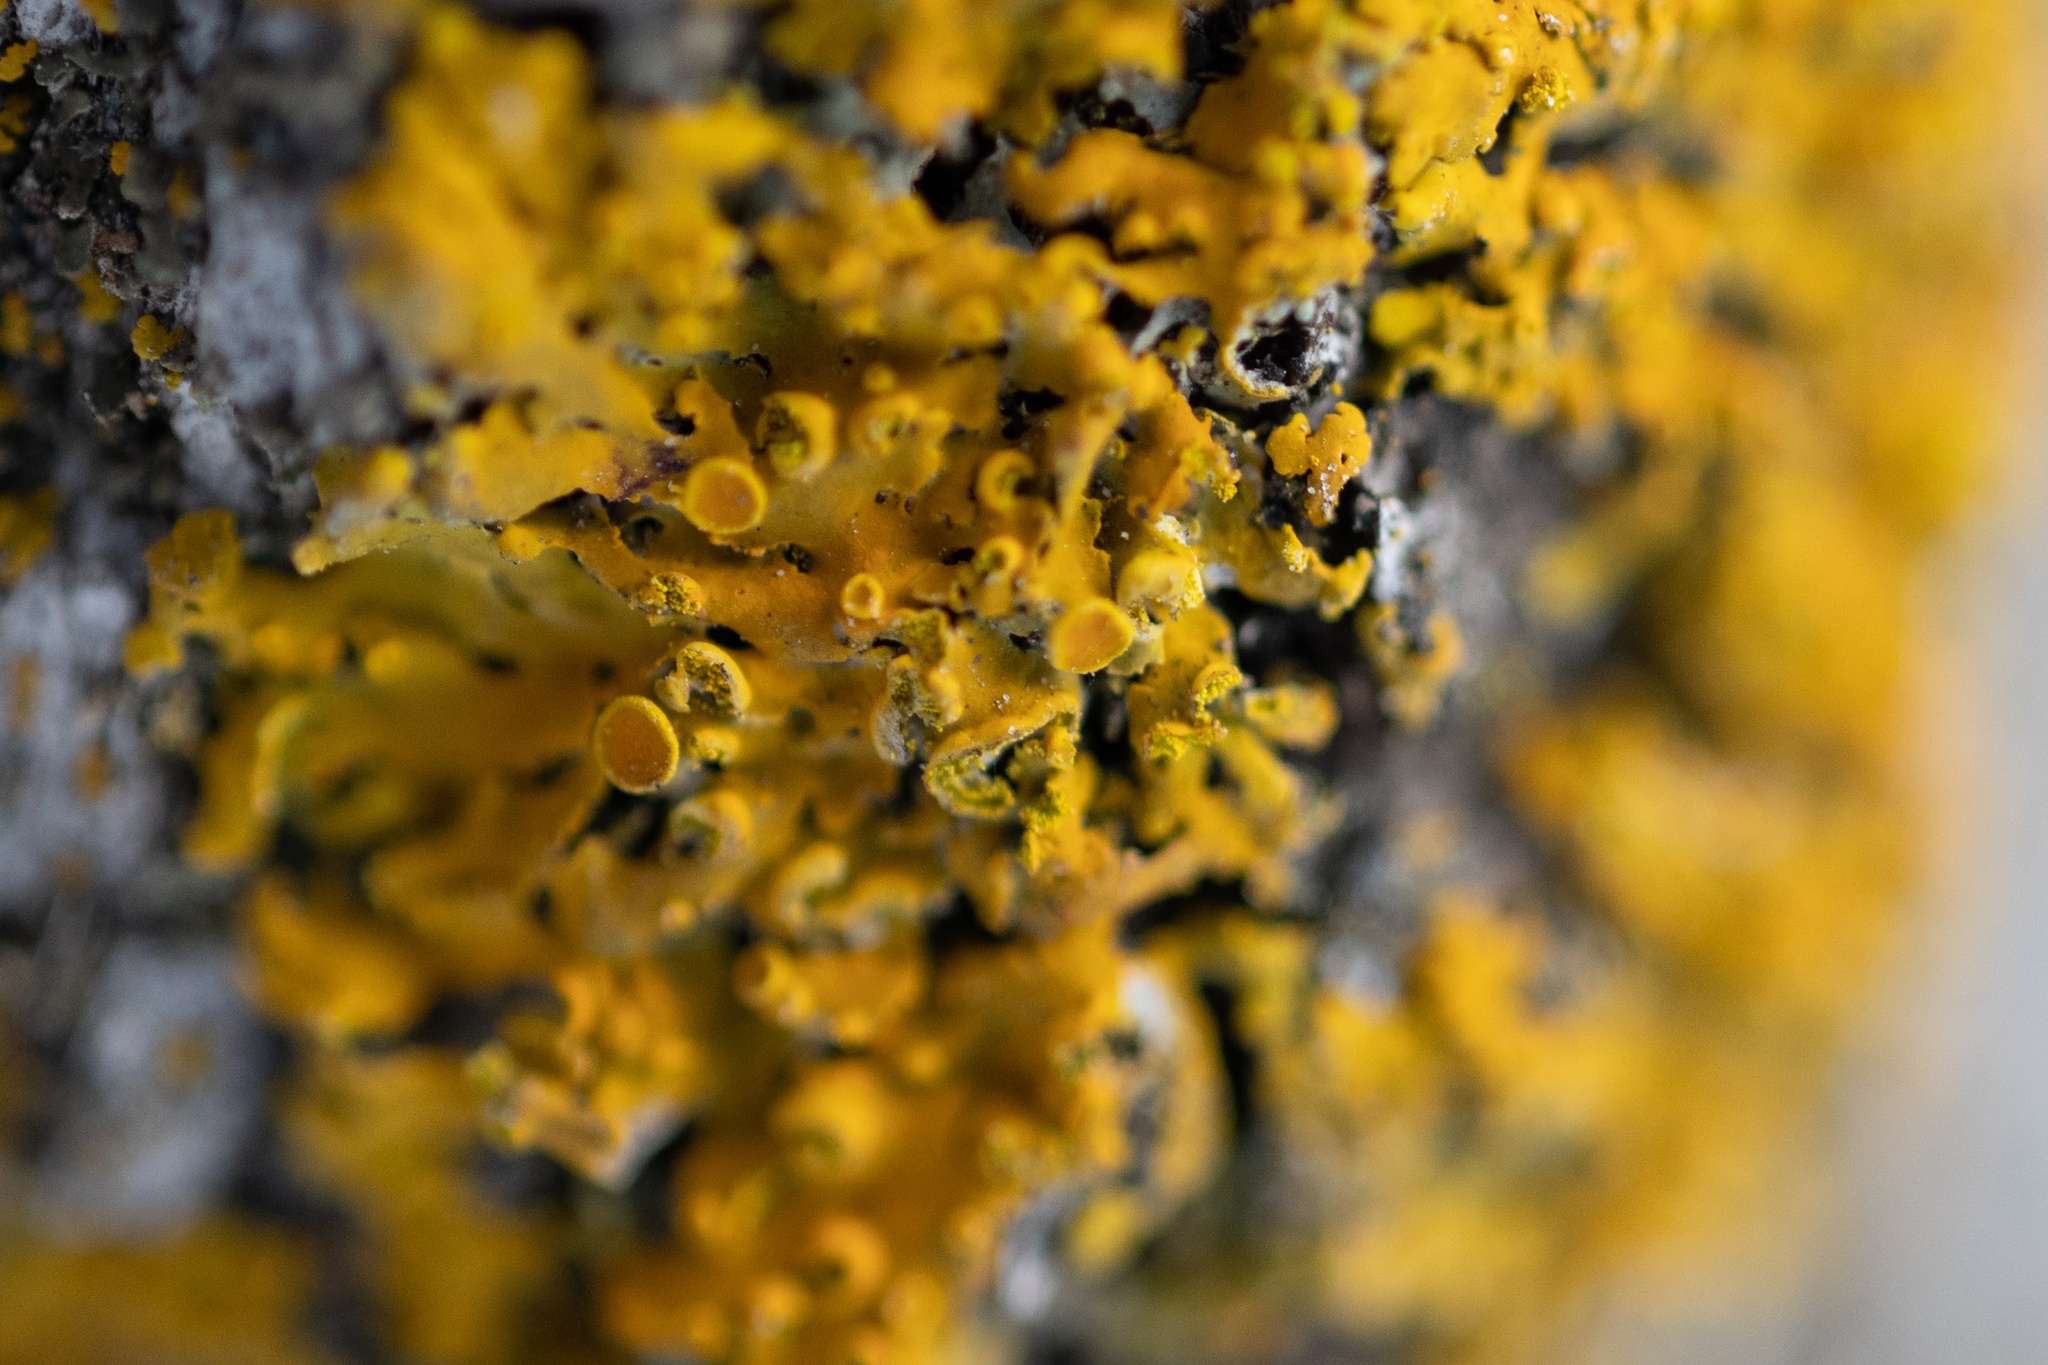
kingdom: Fungi
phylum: Ascomycota
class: Lecanoromycetes
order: Teloschistales
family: Teloschistaceae
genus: Oxneria
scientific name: Oxneria fallax
